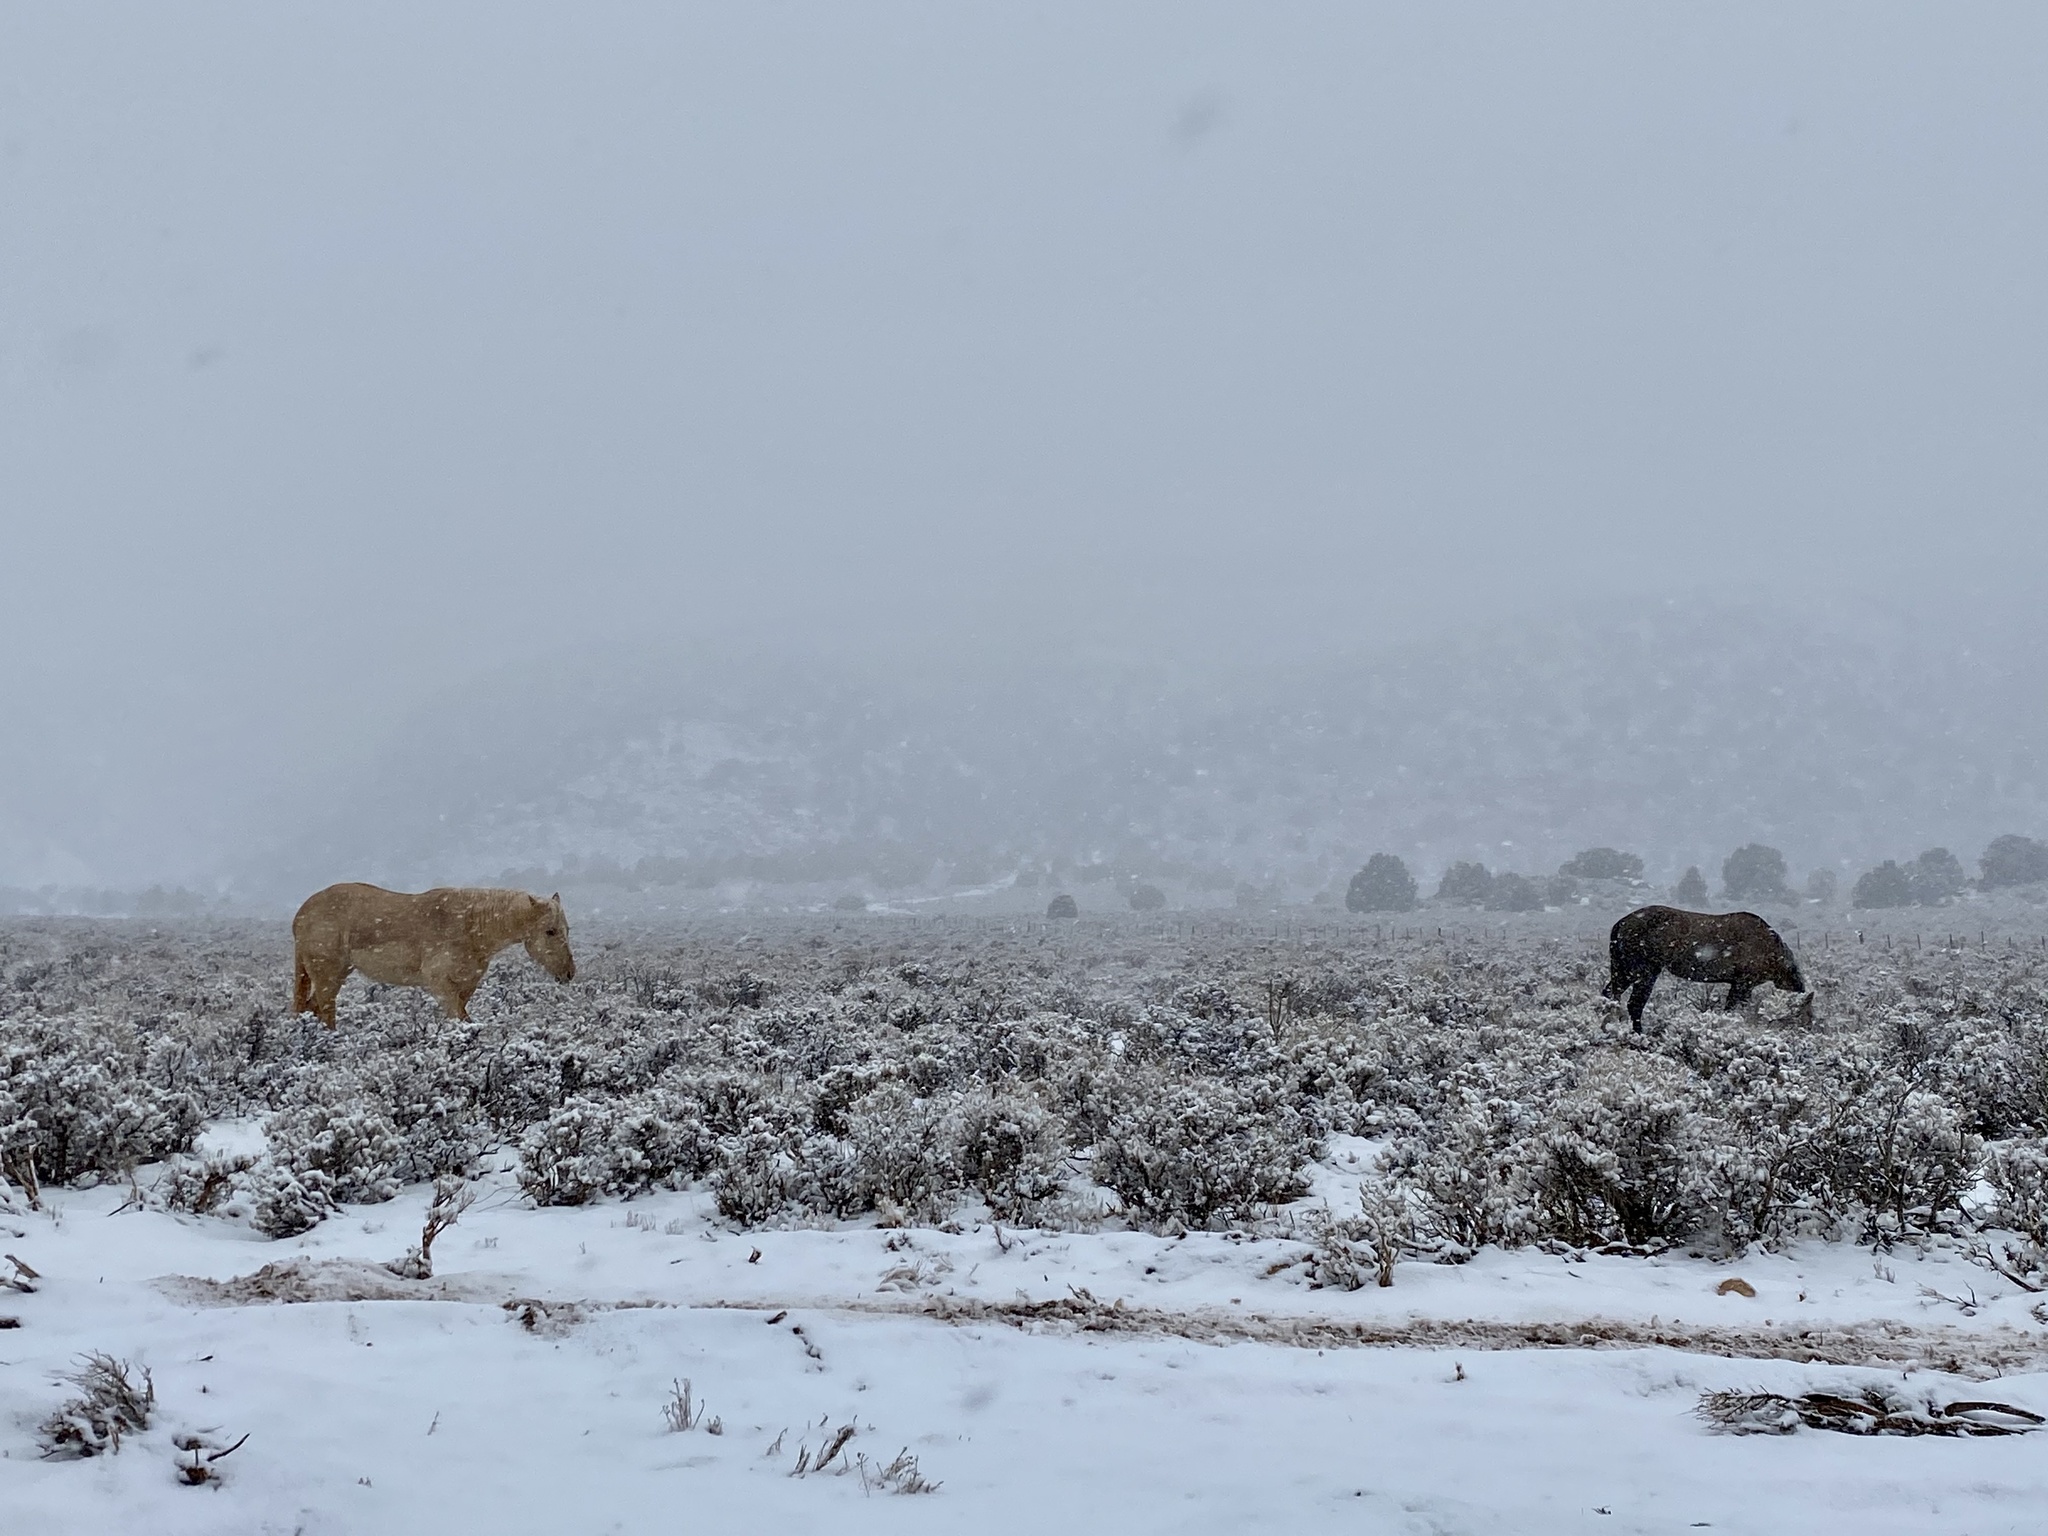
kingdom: Animalia
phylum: Chordata
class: Mammalia
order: Perissodactyla
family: Equidae
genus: Equus
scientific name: Equus caballus
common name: Horse
